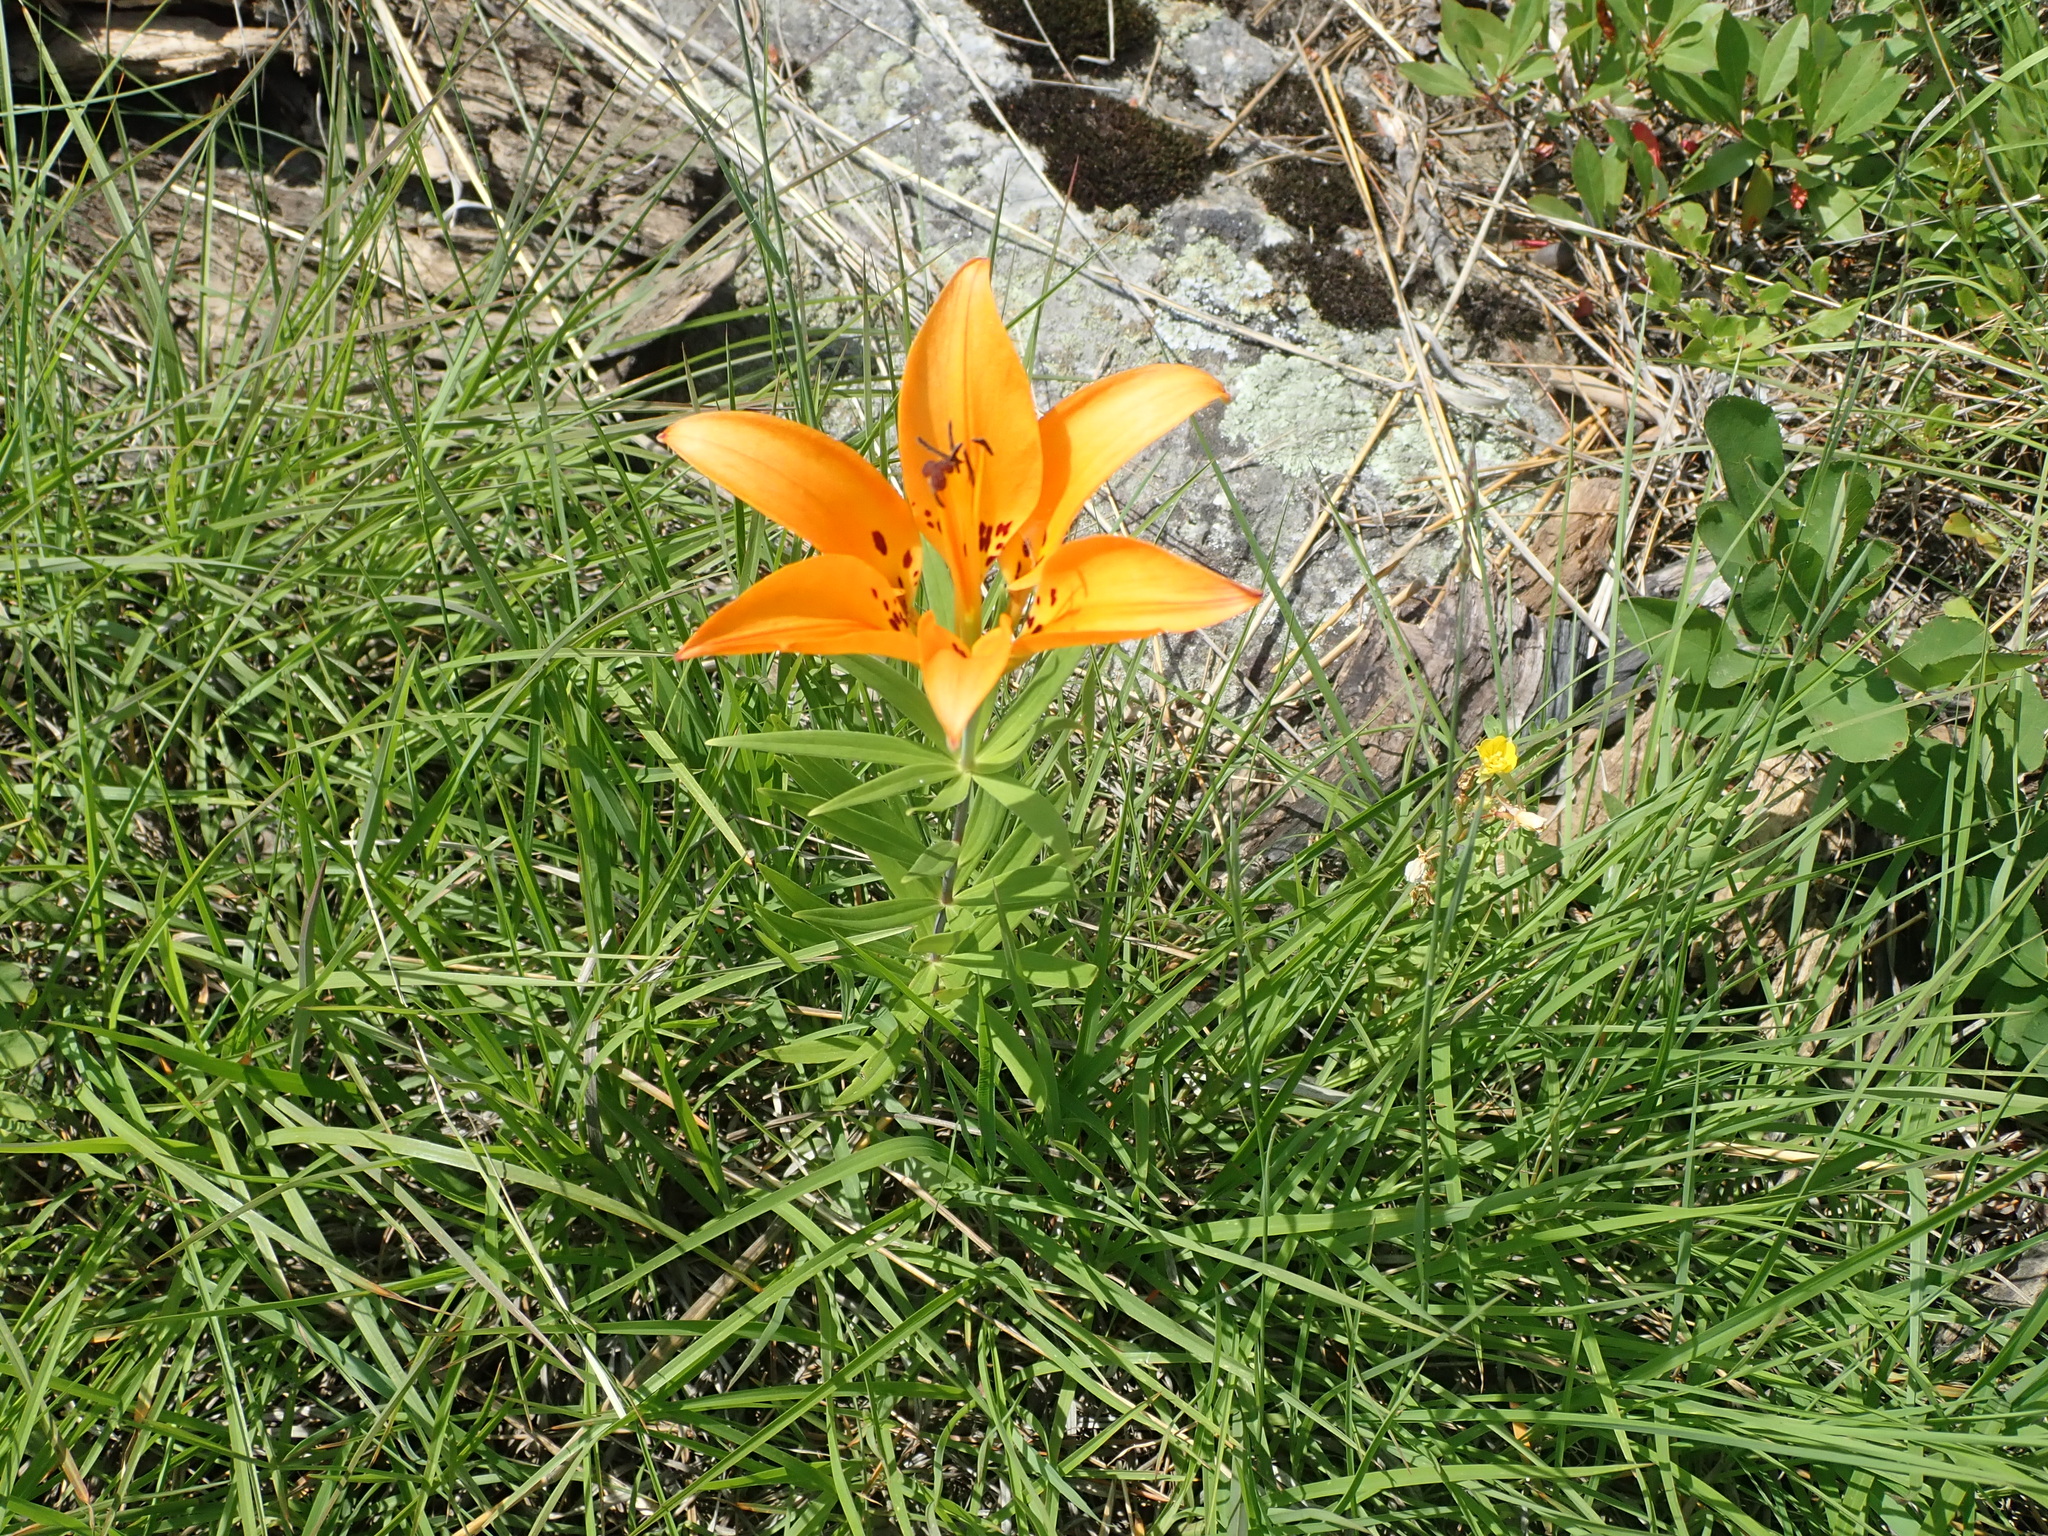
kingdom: Plantae
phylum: Tracheophyta
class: Liliopsida
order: Liliales
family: Liliaceae
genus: Lilium
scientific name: Lilium philadelphicum
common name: Red lily
